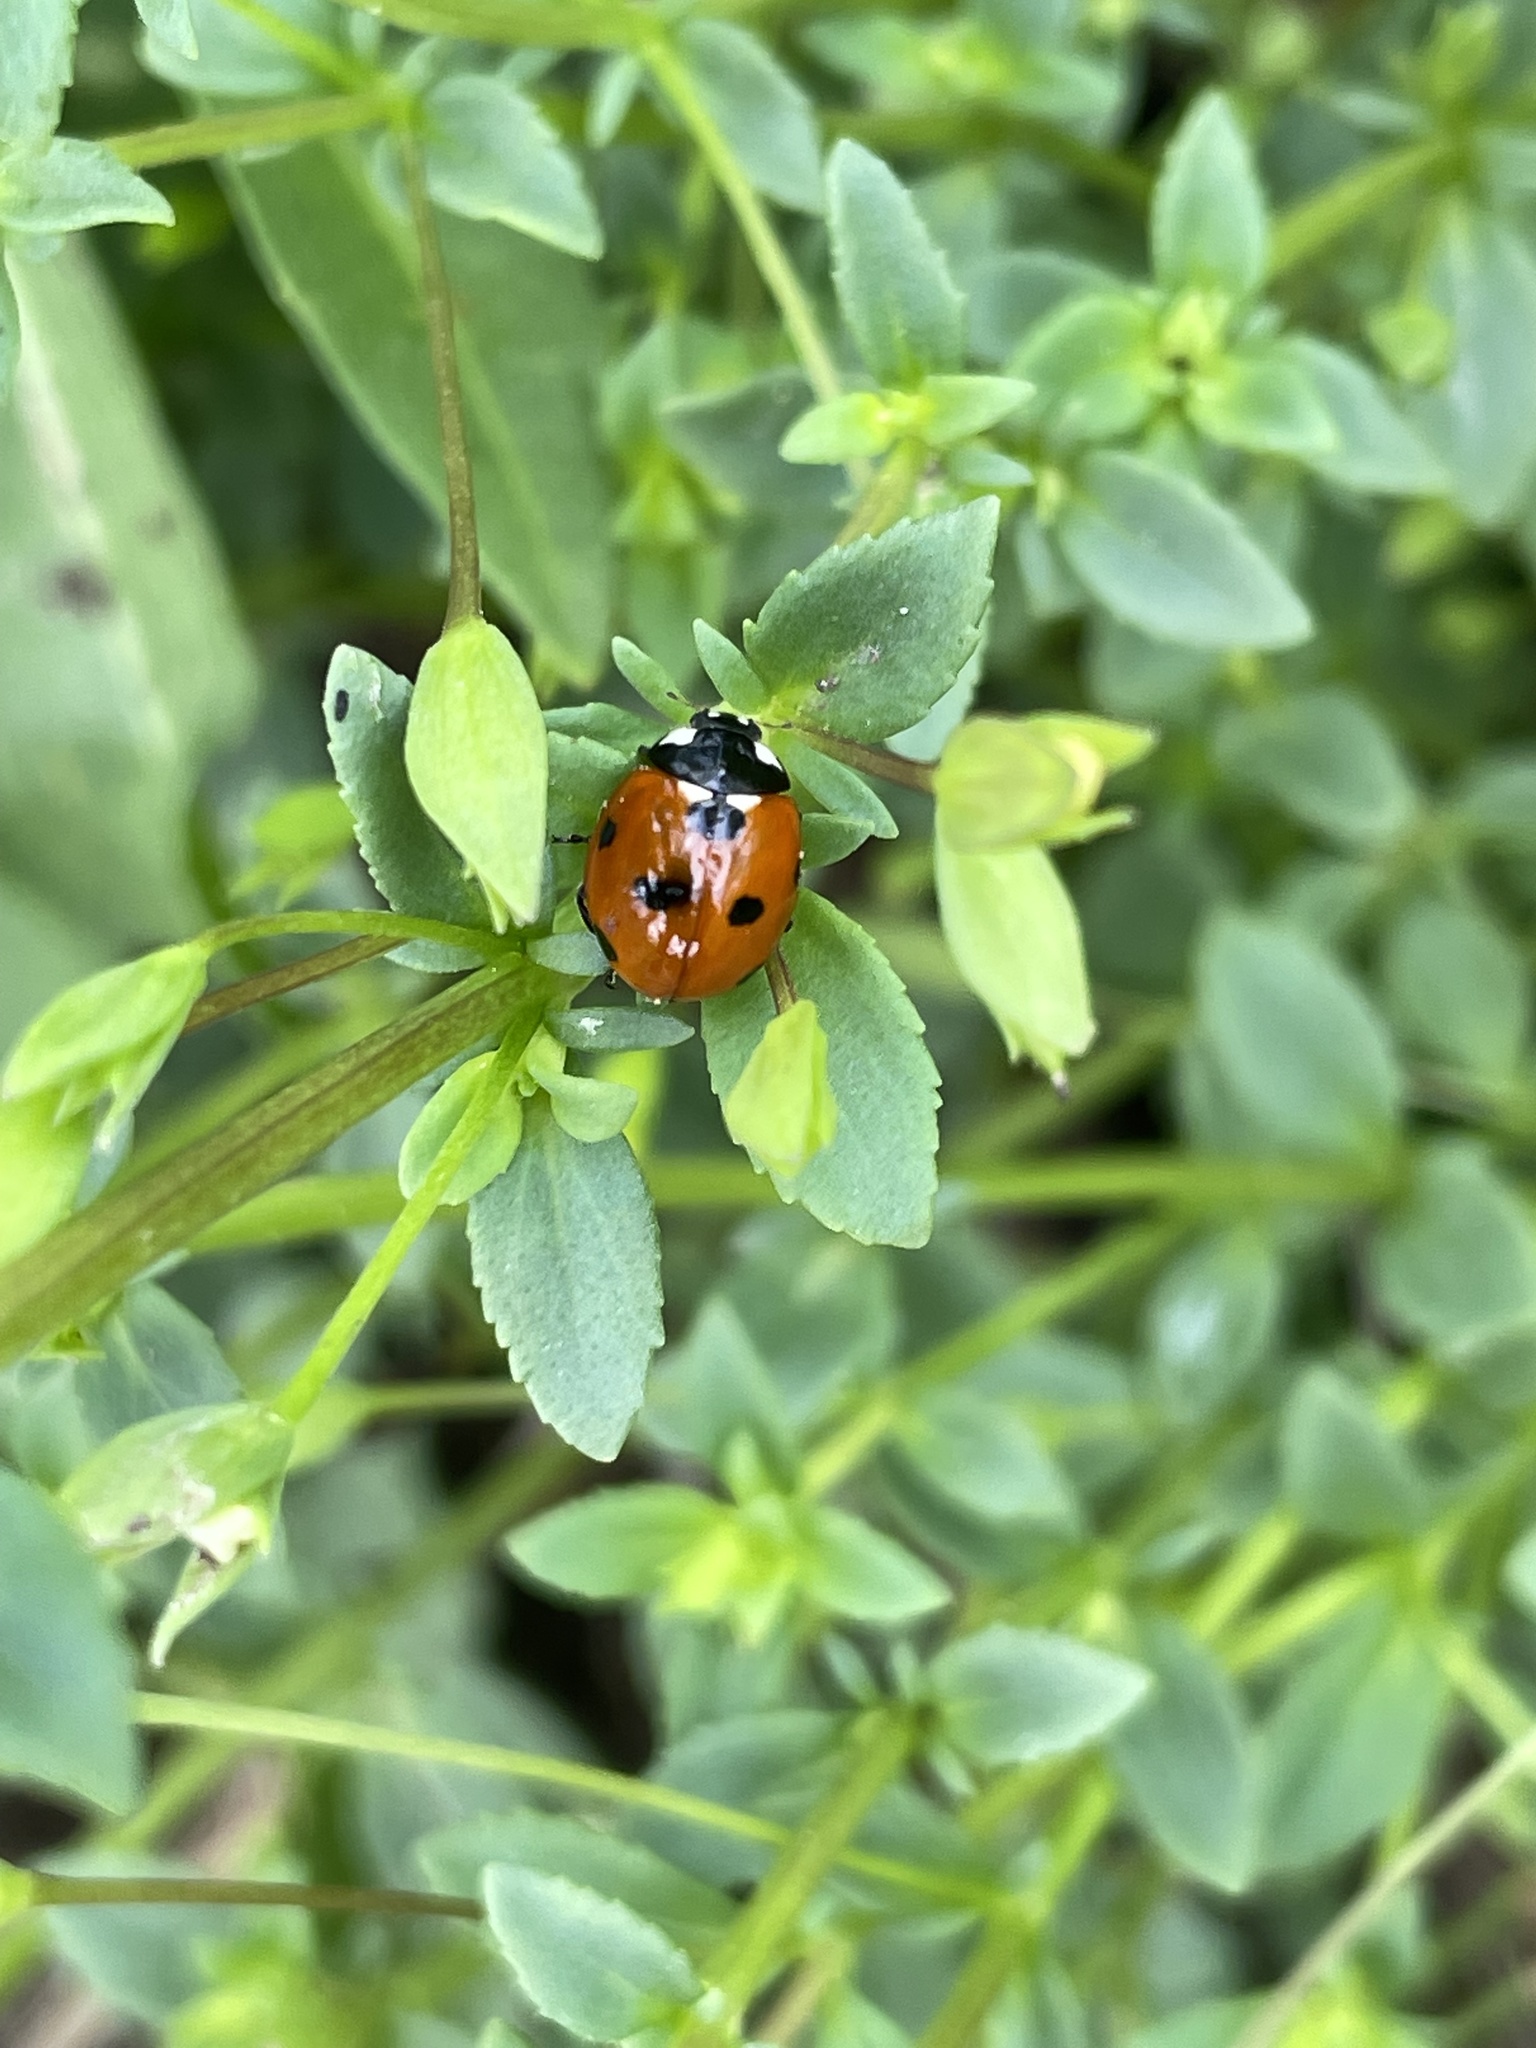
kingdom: Animalia
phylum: Arthropoda
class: Insecta
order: Coleoptera
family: Coccinellidae
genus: Coccinella
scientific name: Coccinella septempunctata
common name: Sevenspotted lady beetle
